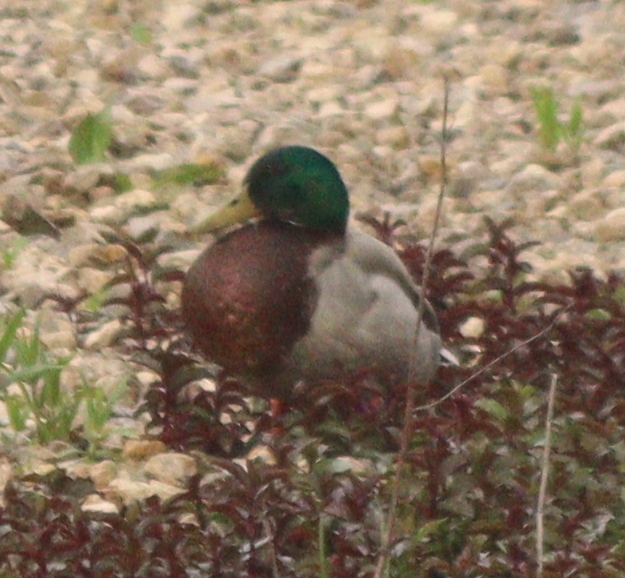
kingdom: Animalia
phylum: Chordata
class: Aves
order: Anseriformes
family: Anatidae
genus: Anas
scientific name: Anas platyrhynchos
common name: Mallard
